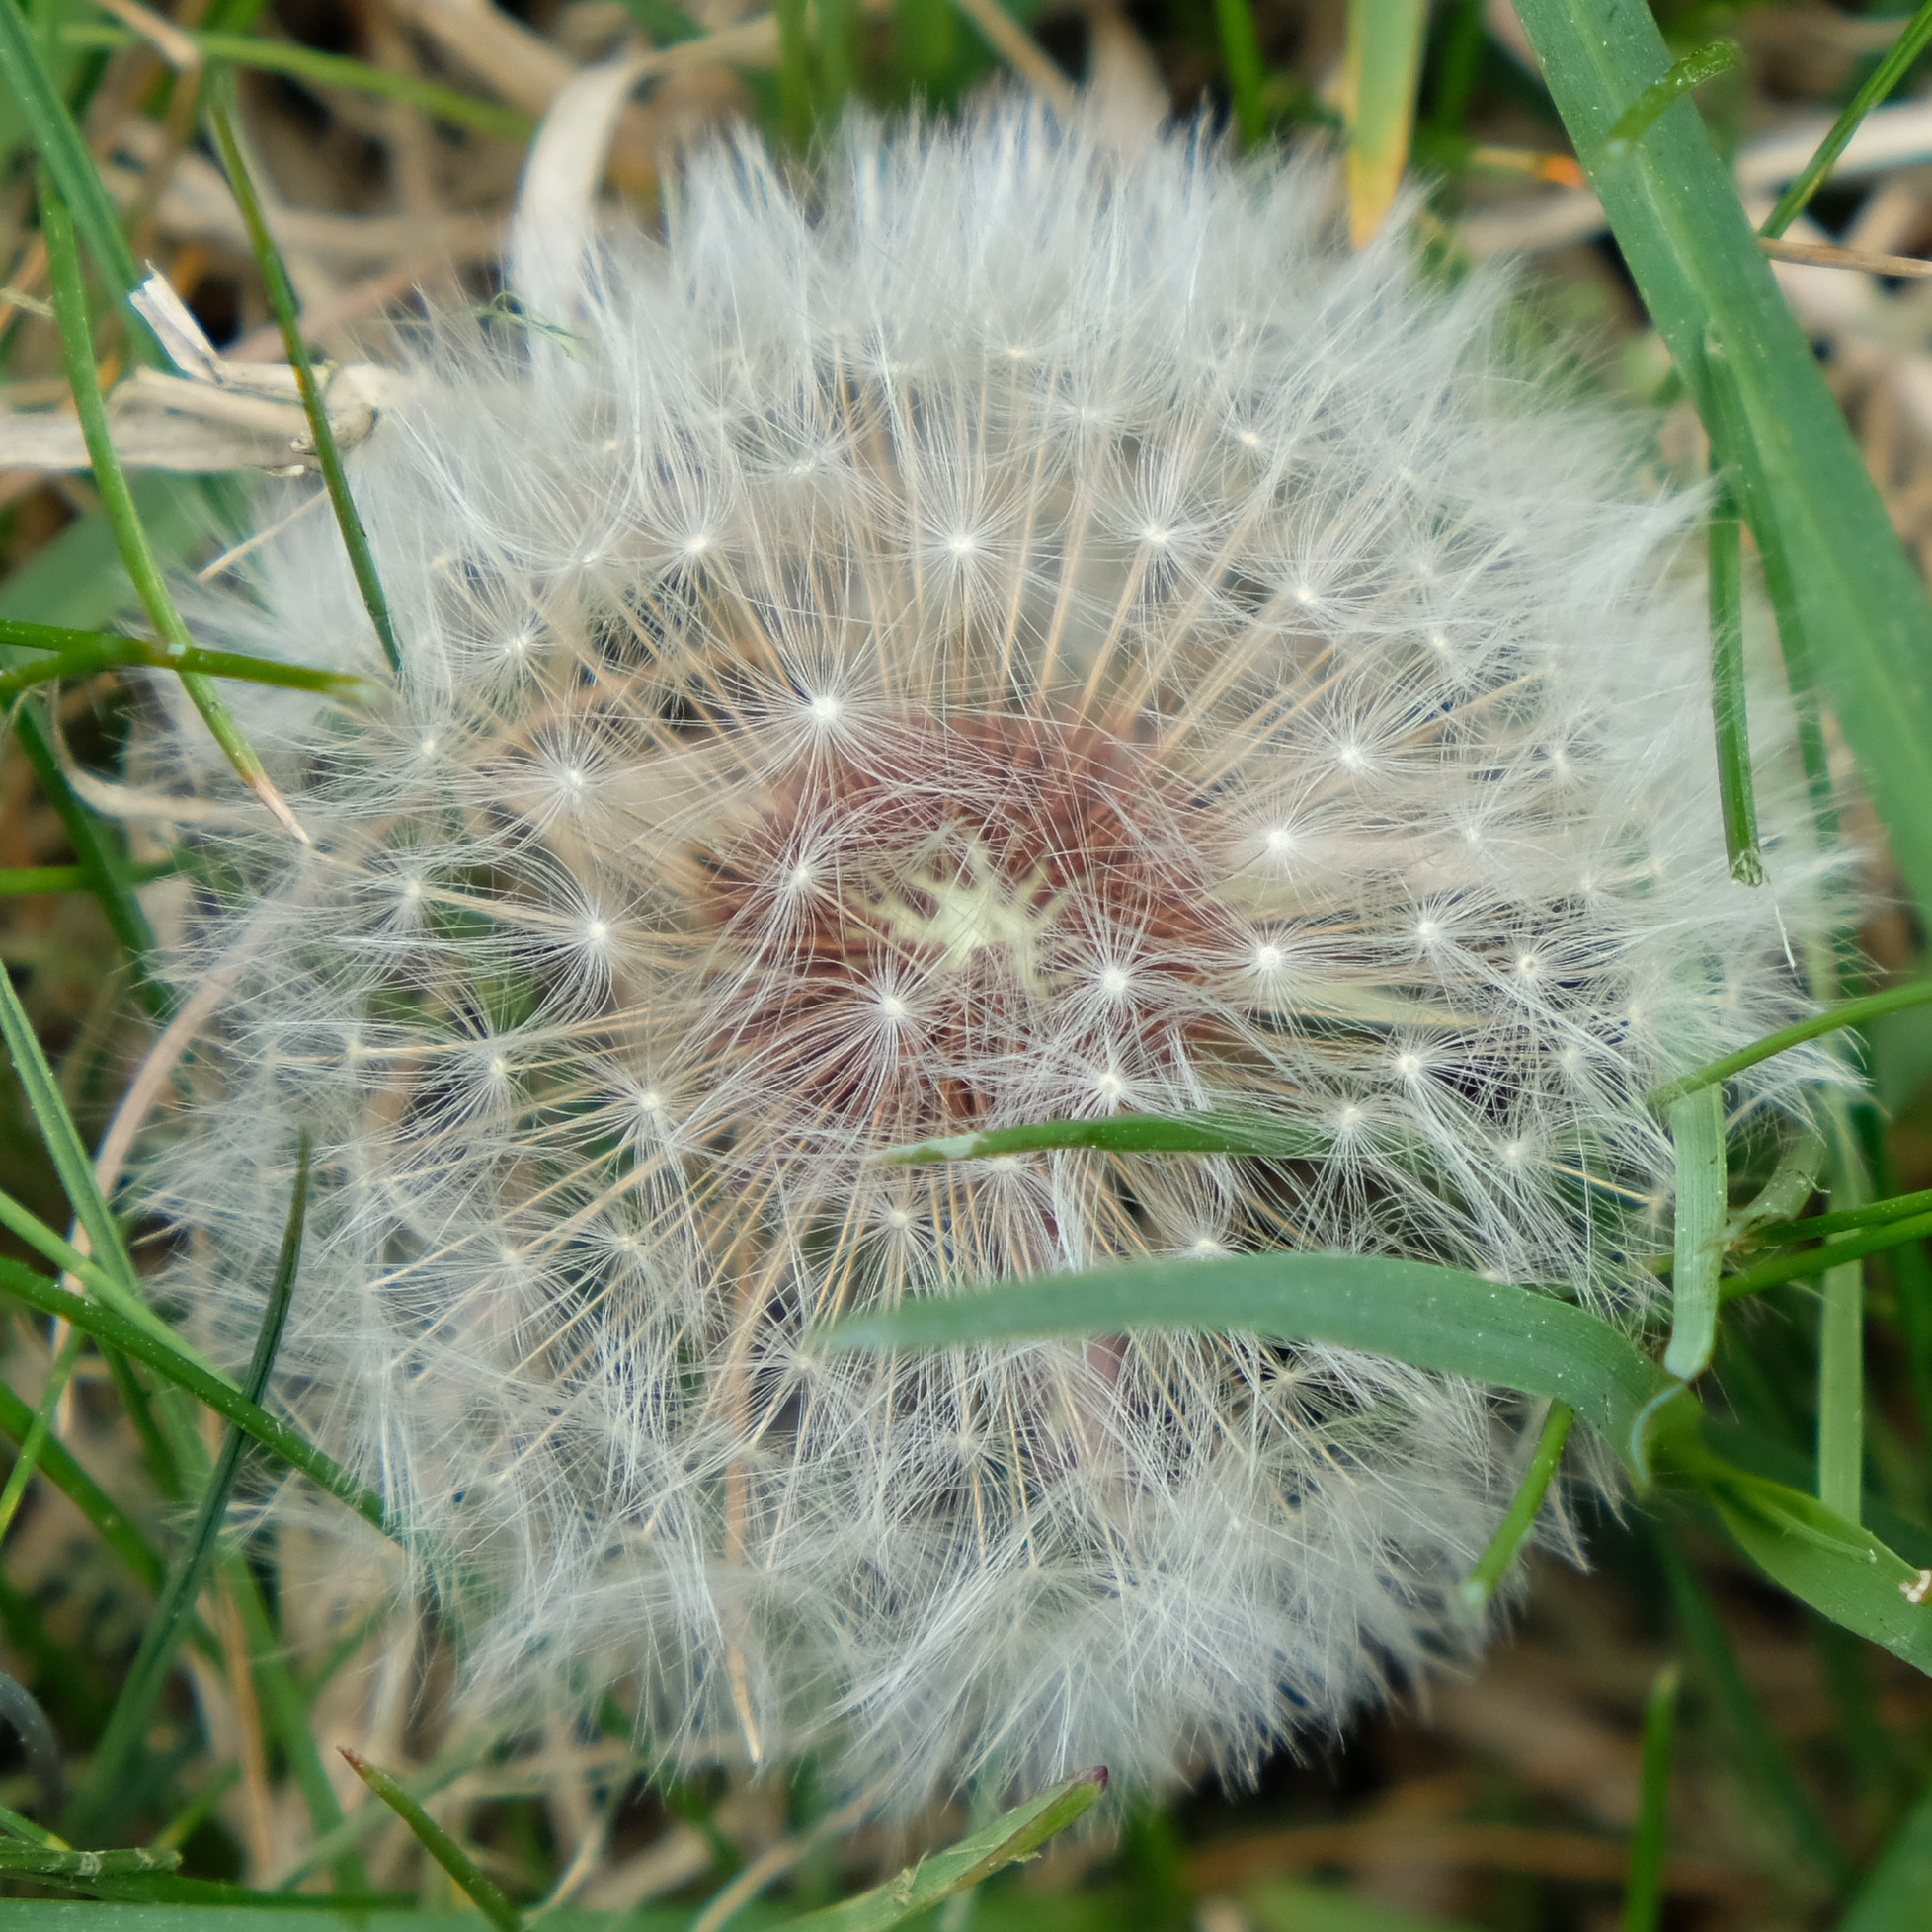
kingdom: Plantae
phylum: Tracheophyta
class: Magnoliopsida
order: Asterales
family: Asteraceae
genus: Taraxacum
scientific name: Taraxacum erythrospermum
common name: Rock dandelion
